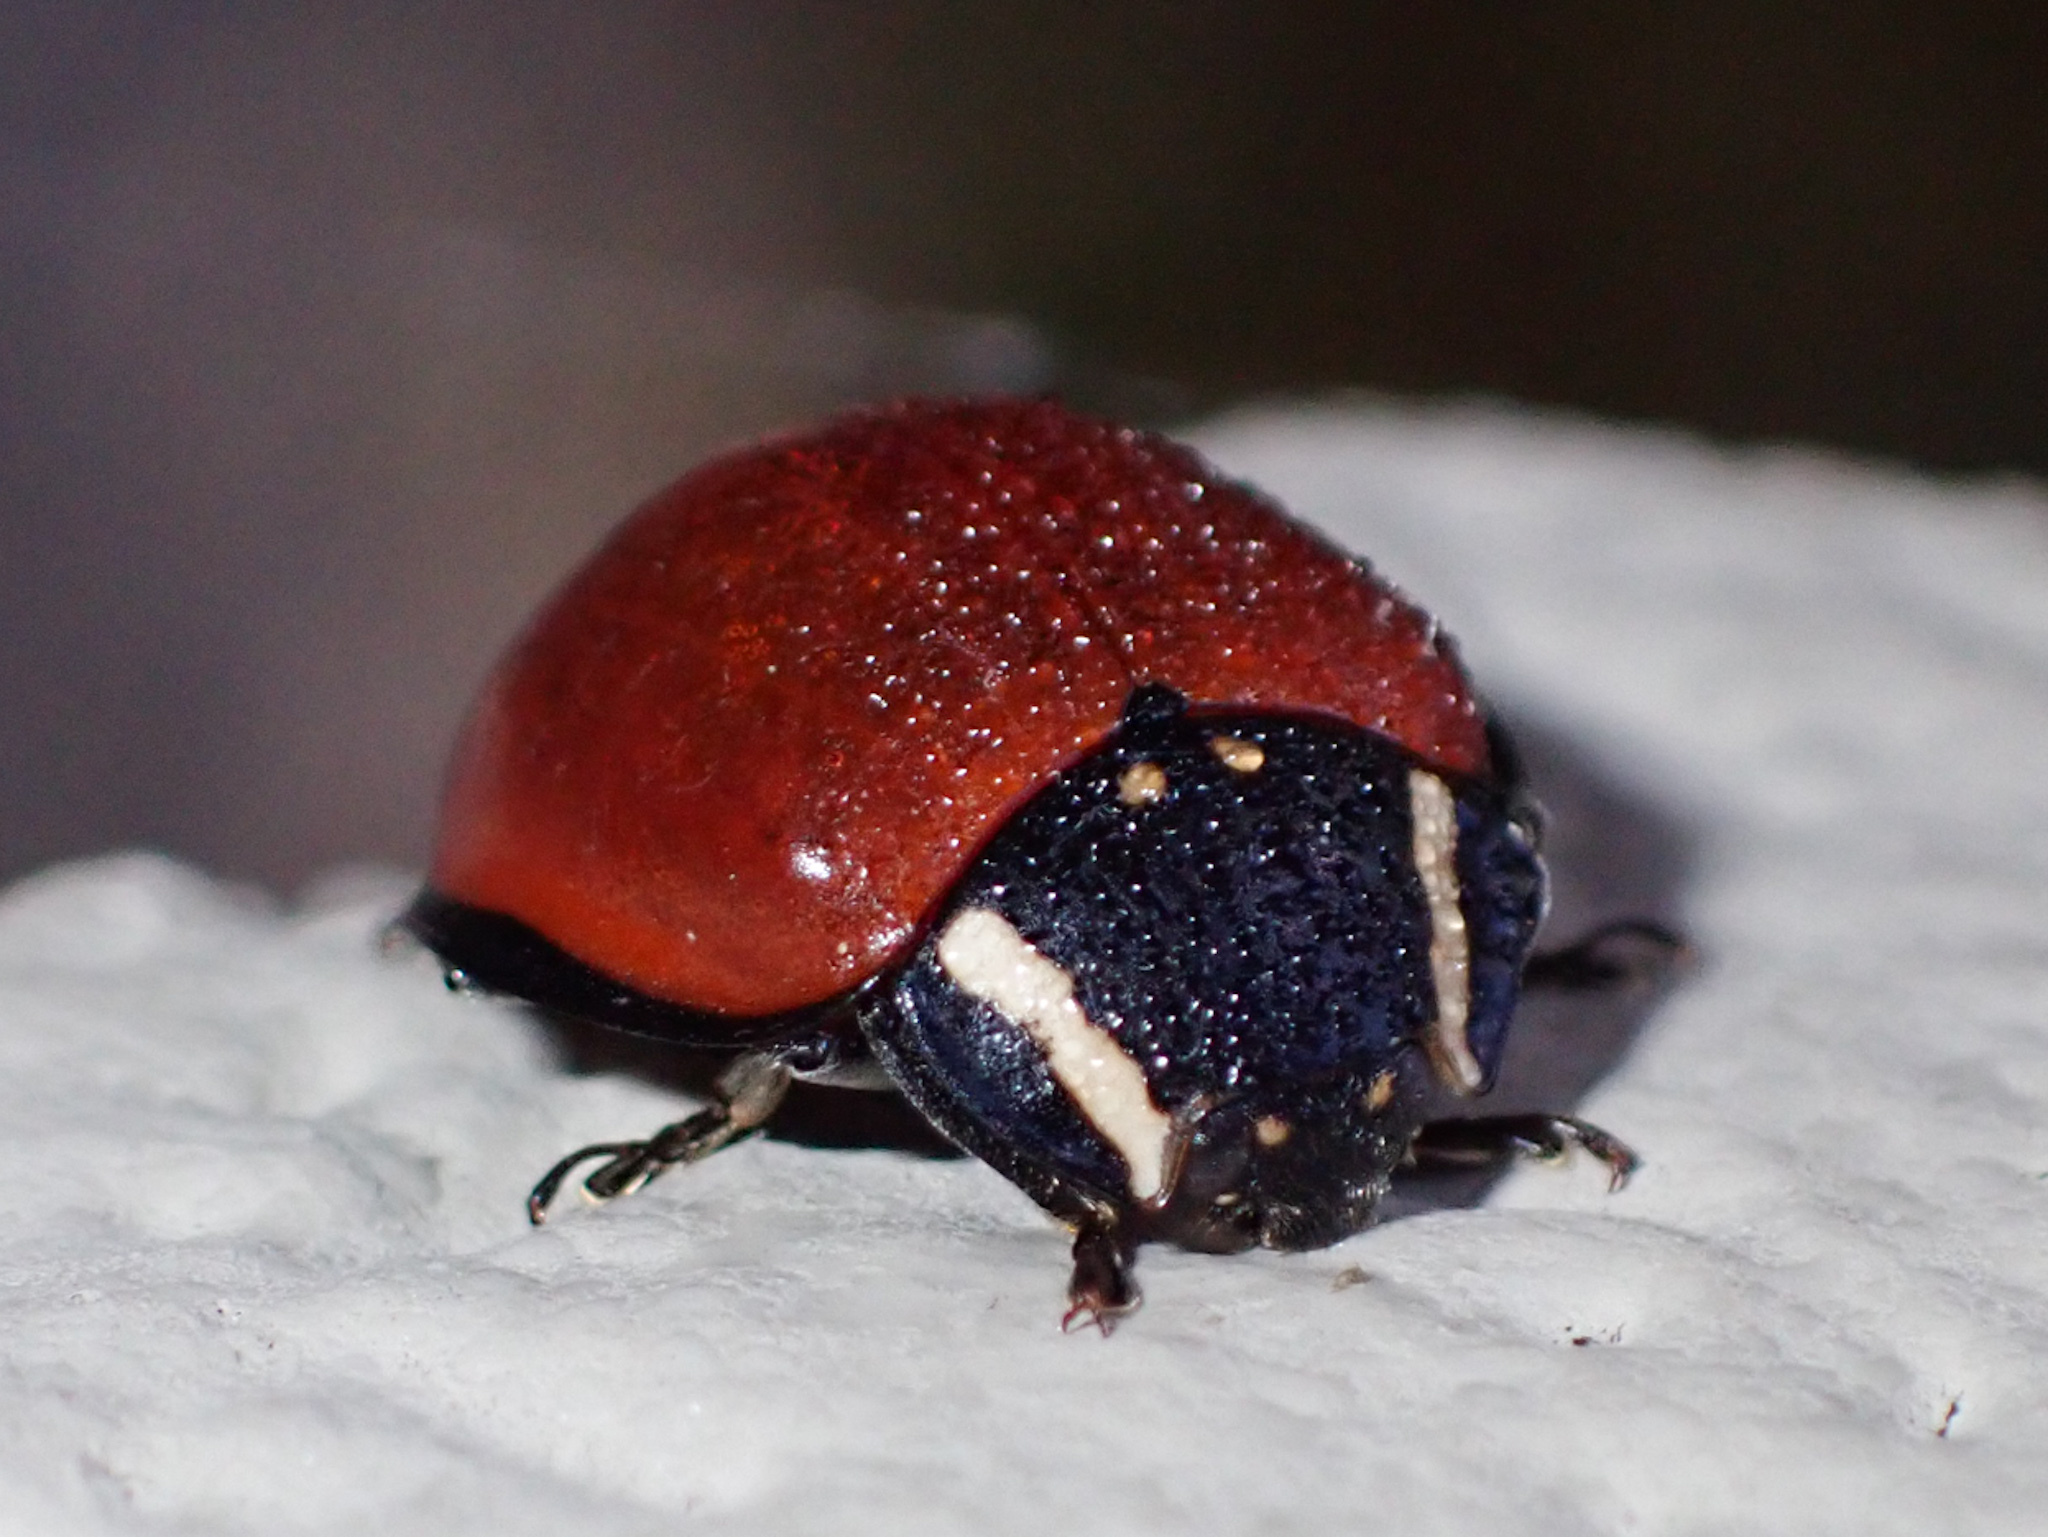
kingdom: Animalia
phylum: Arthropoda
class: Insecta
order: Coleoptera
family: Coccinellidae
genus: Anatis
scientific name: Anatis lecontei
